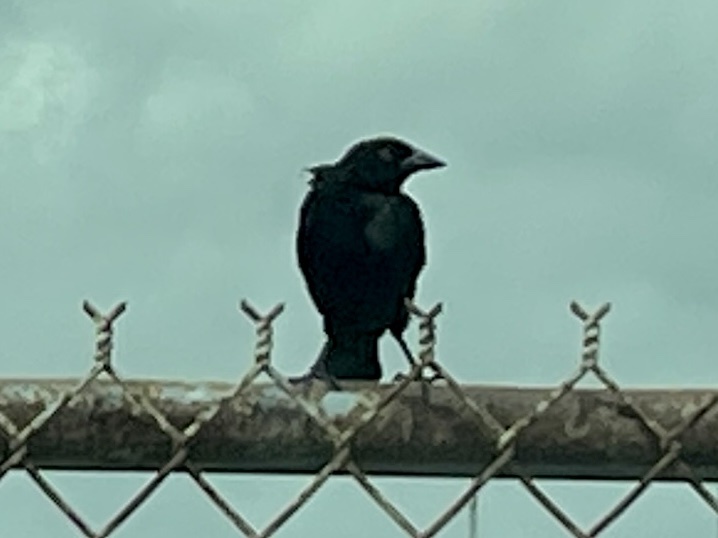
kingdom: Animalia
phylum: Chordata
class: Aves
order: Passeriformes
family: Icteridae
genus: Molothrus
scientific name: Molothrus aeneus
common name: Bronzed cowbird
